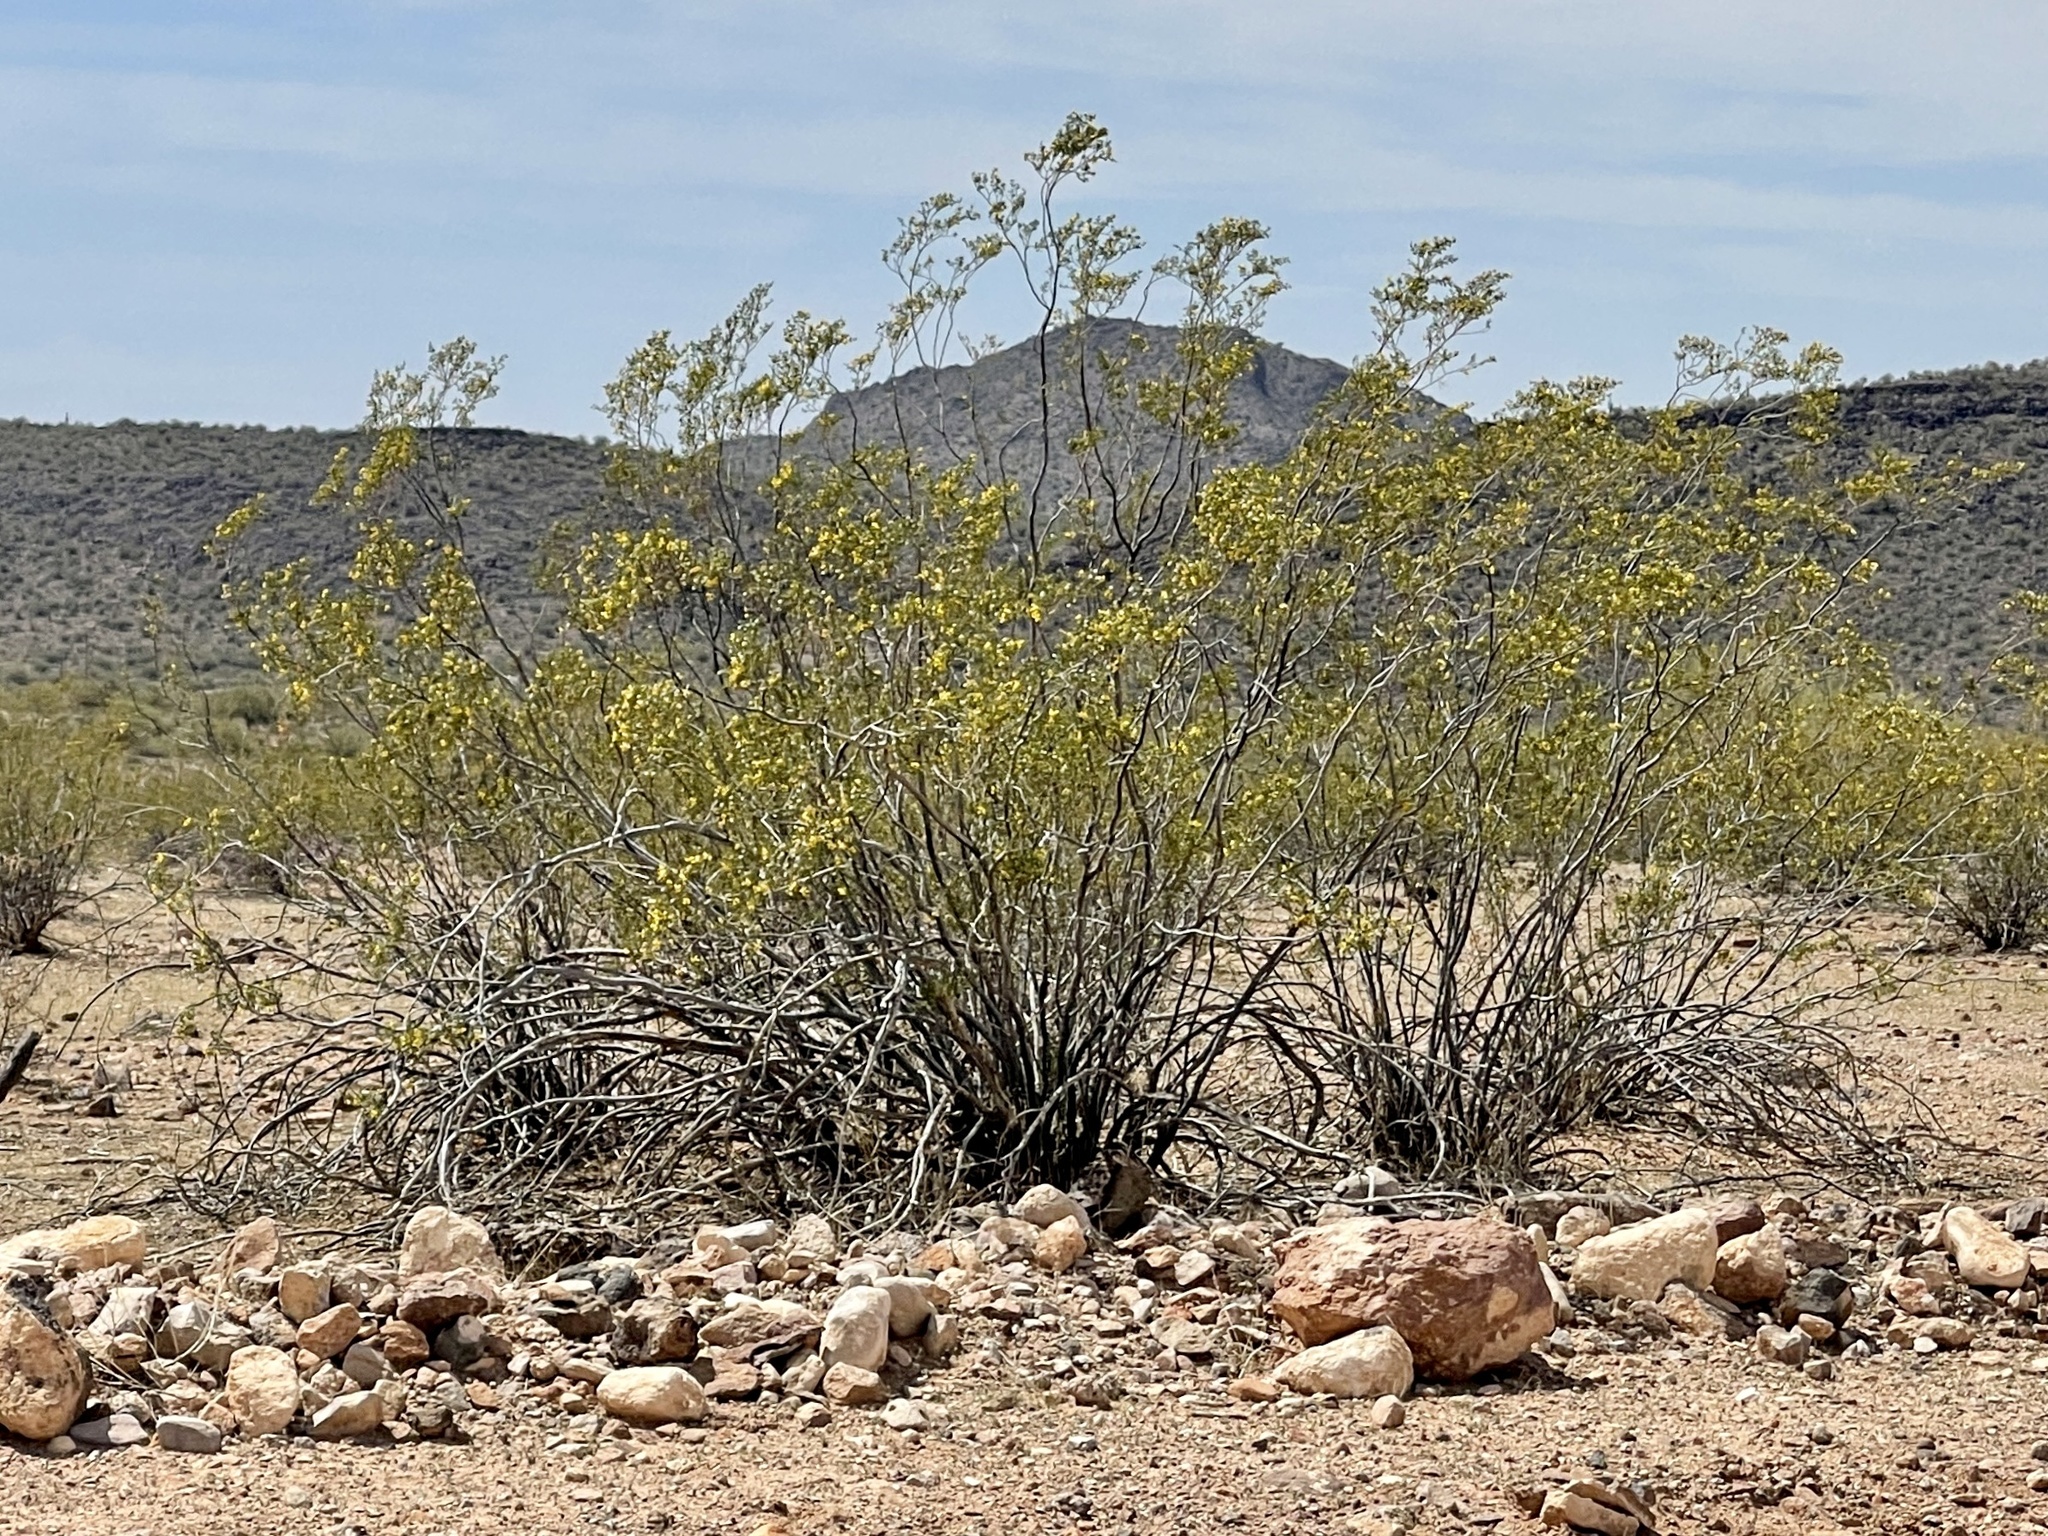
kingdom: Plantae
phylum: Tracheophyta
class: Magnoliopsida
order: Zygophyllales
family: Zygophyllaceae
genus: Larrea
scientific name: Larrea tridentata
